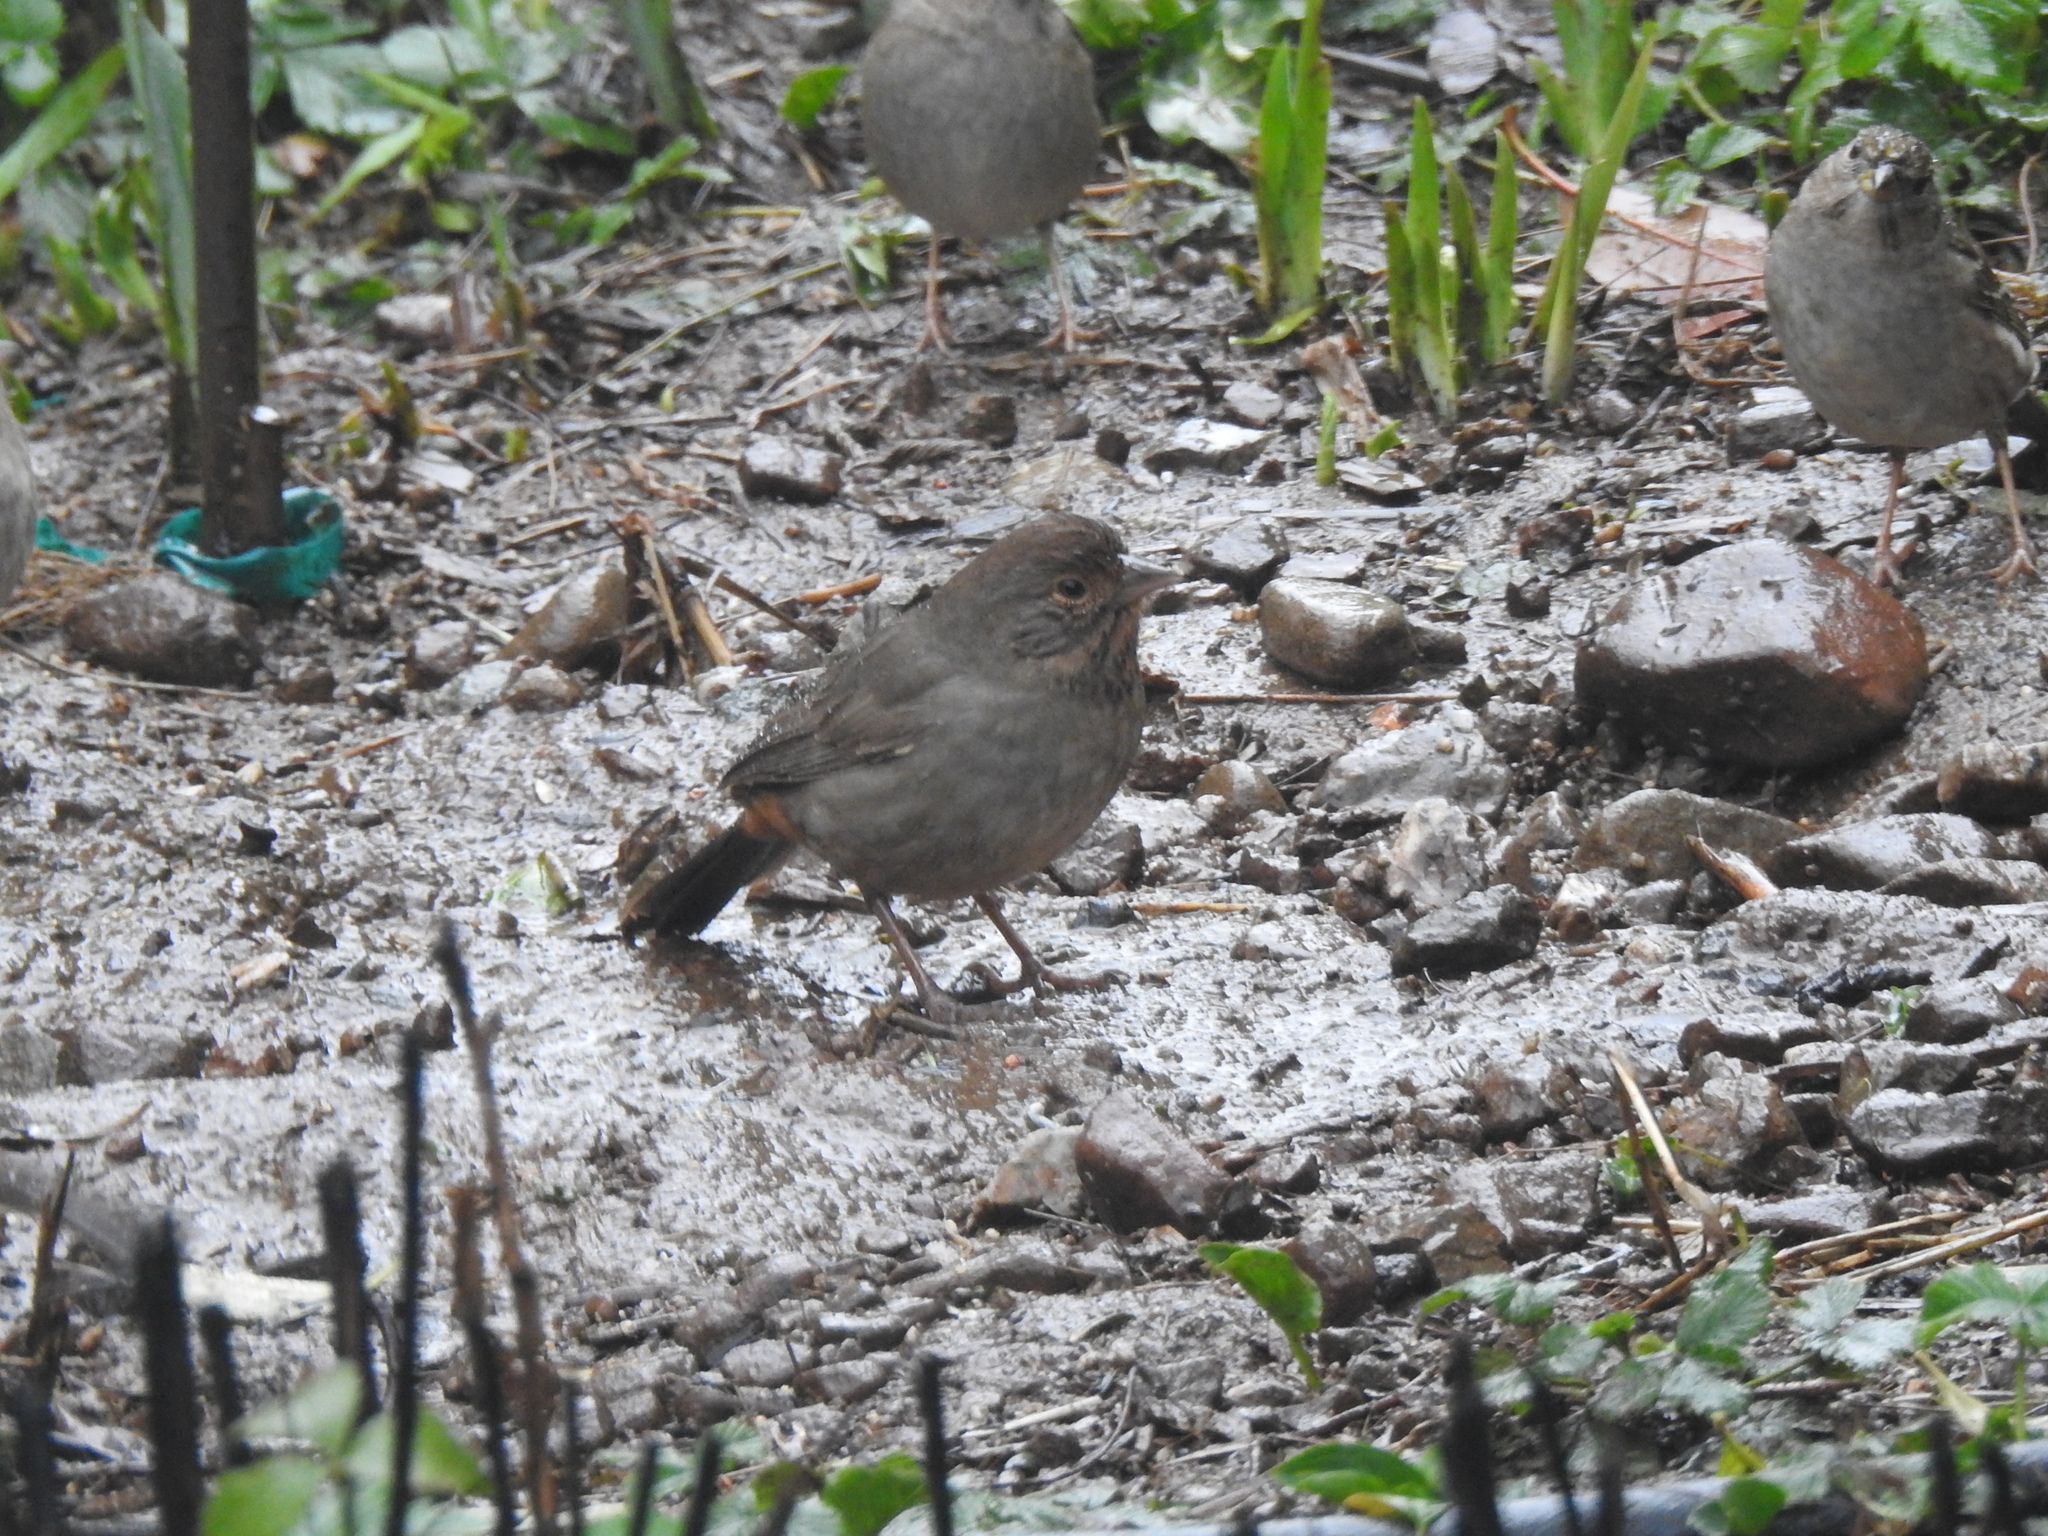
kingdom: Animalia
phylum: Chordata
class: Aves
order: Passeriformes
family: Passerellidae
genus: Melozone
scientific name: Melozone crissalis
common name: California towhee
